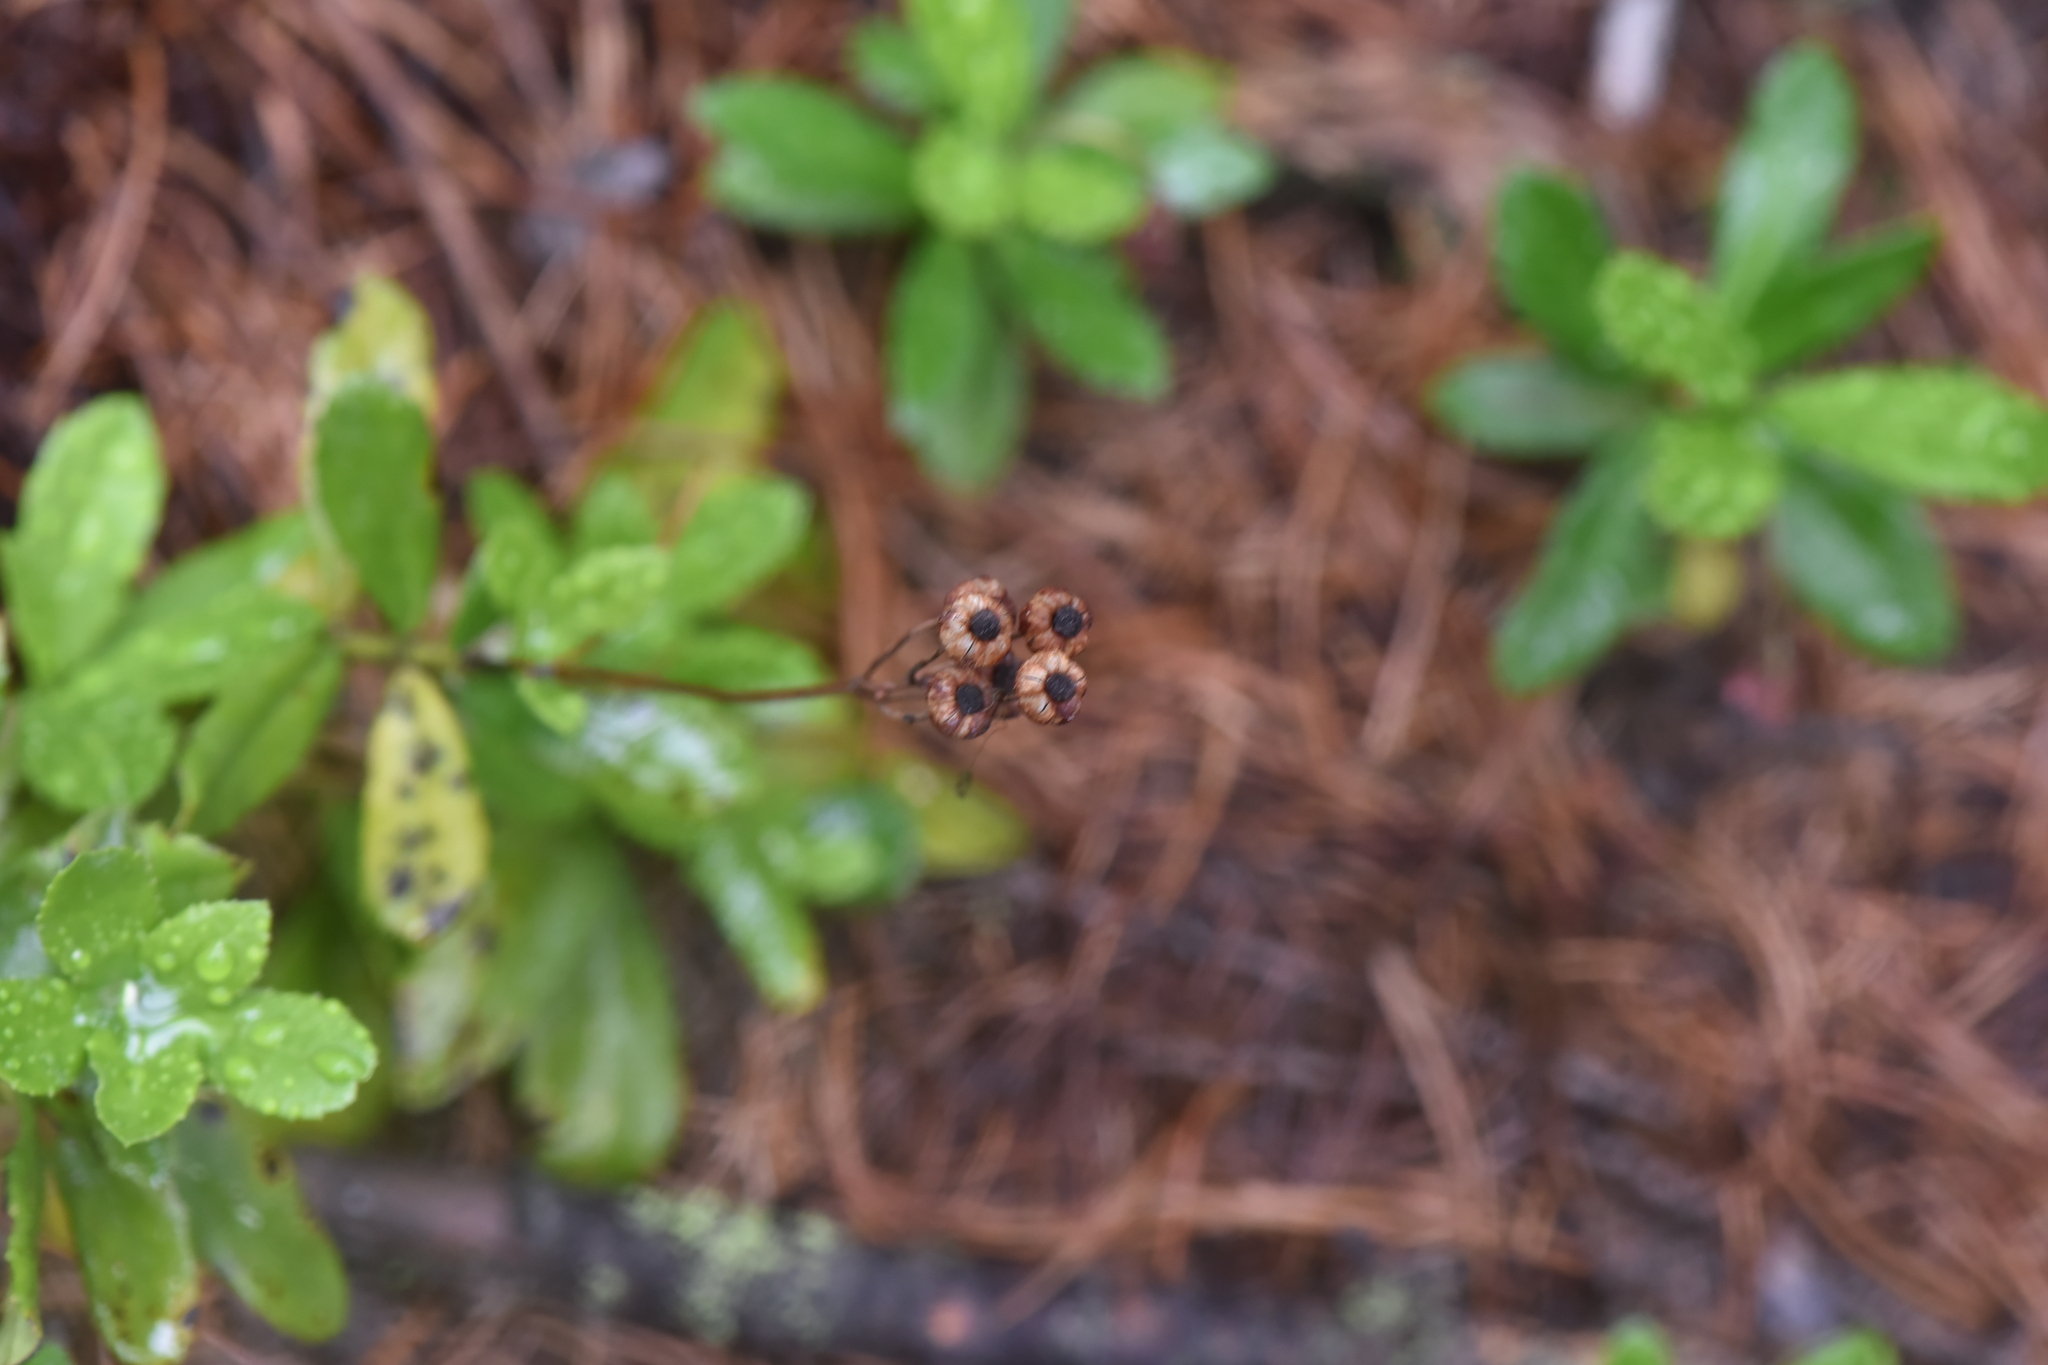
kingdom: Plantae
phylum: Tracheophyta
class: Magnoliopsida
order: Ericales
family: Ericaceae
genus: Chimaphila
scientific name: Chimaphila umbellata
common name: Pipsissewa
